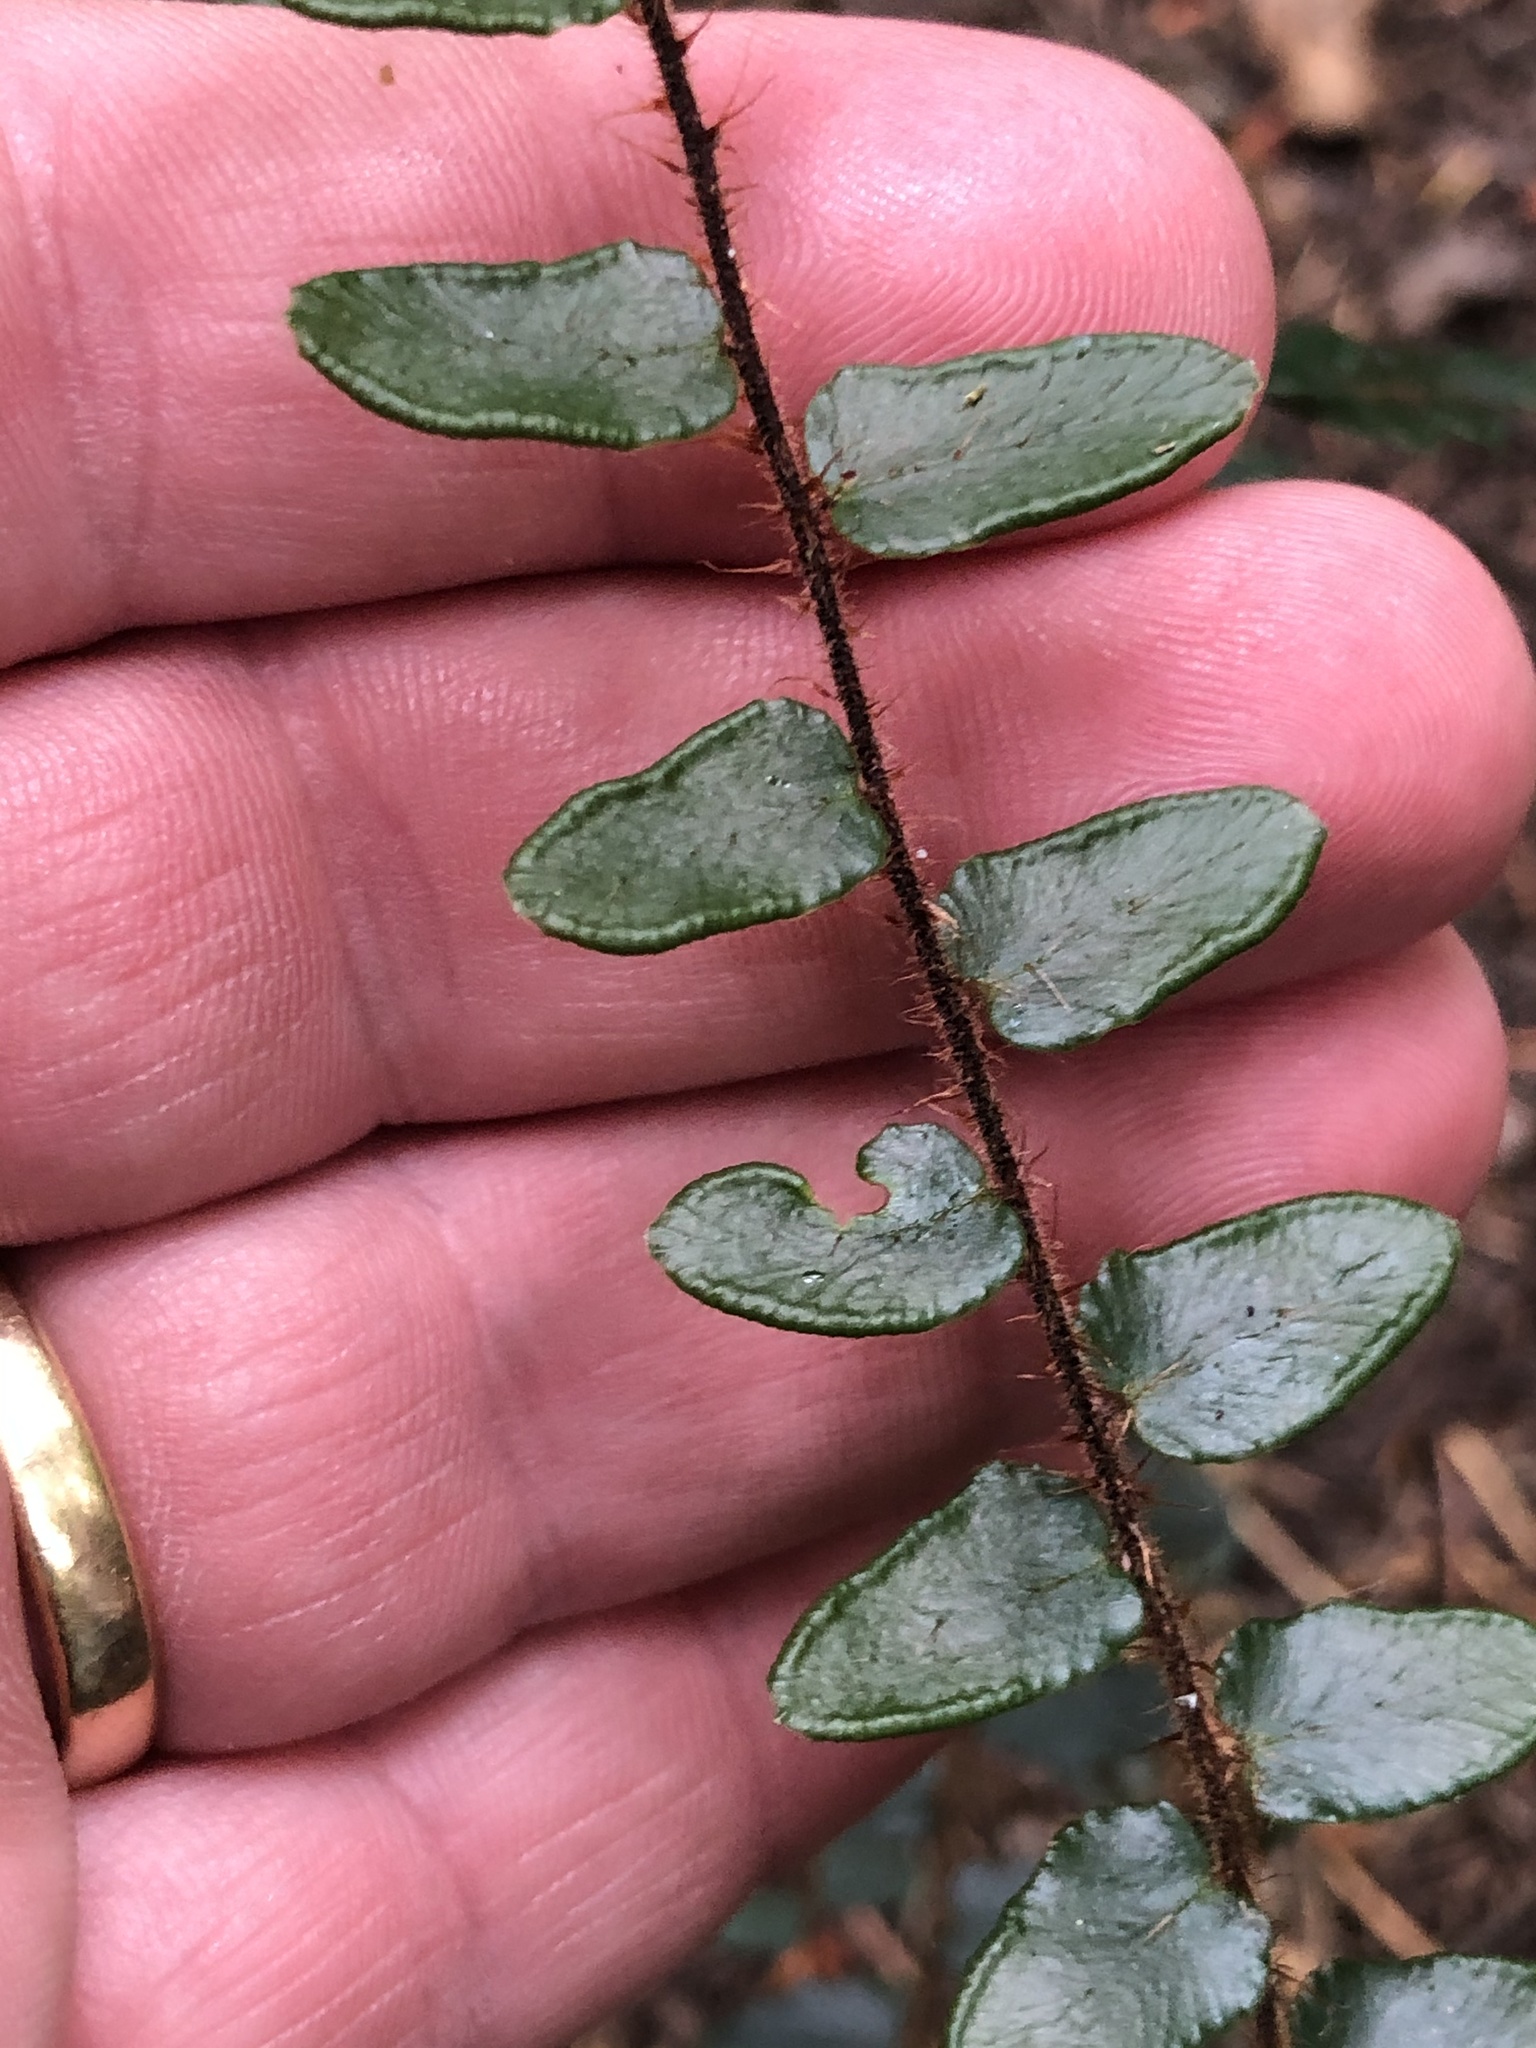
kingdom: Plantae
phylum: Tracheophyta
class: Polypodiopsida
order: Polypodiales
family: Pteridaceae
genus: Pellaea
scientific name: Pellaea rotundifolia
